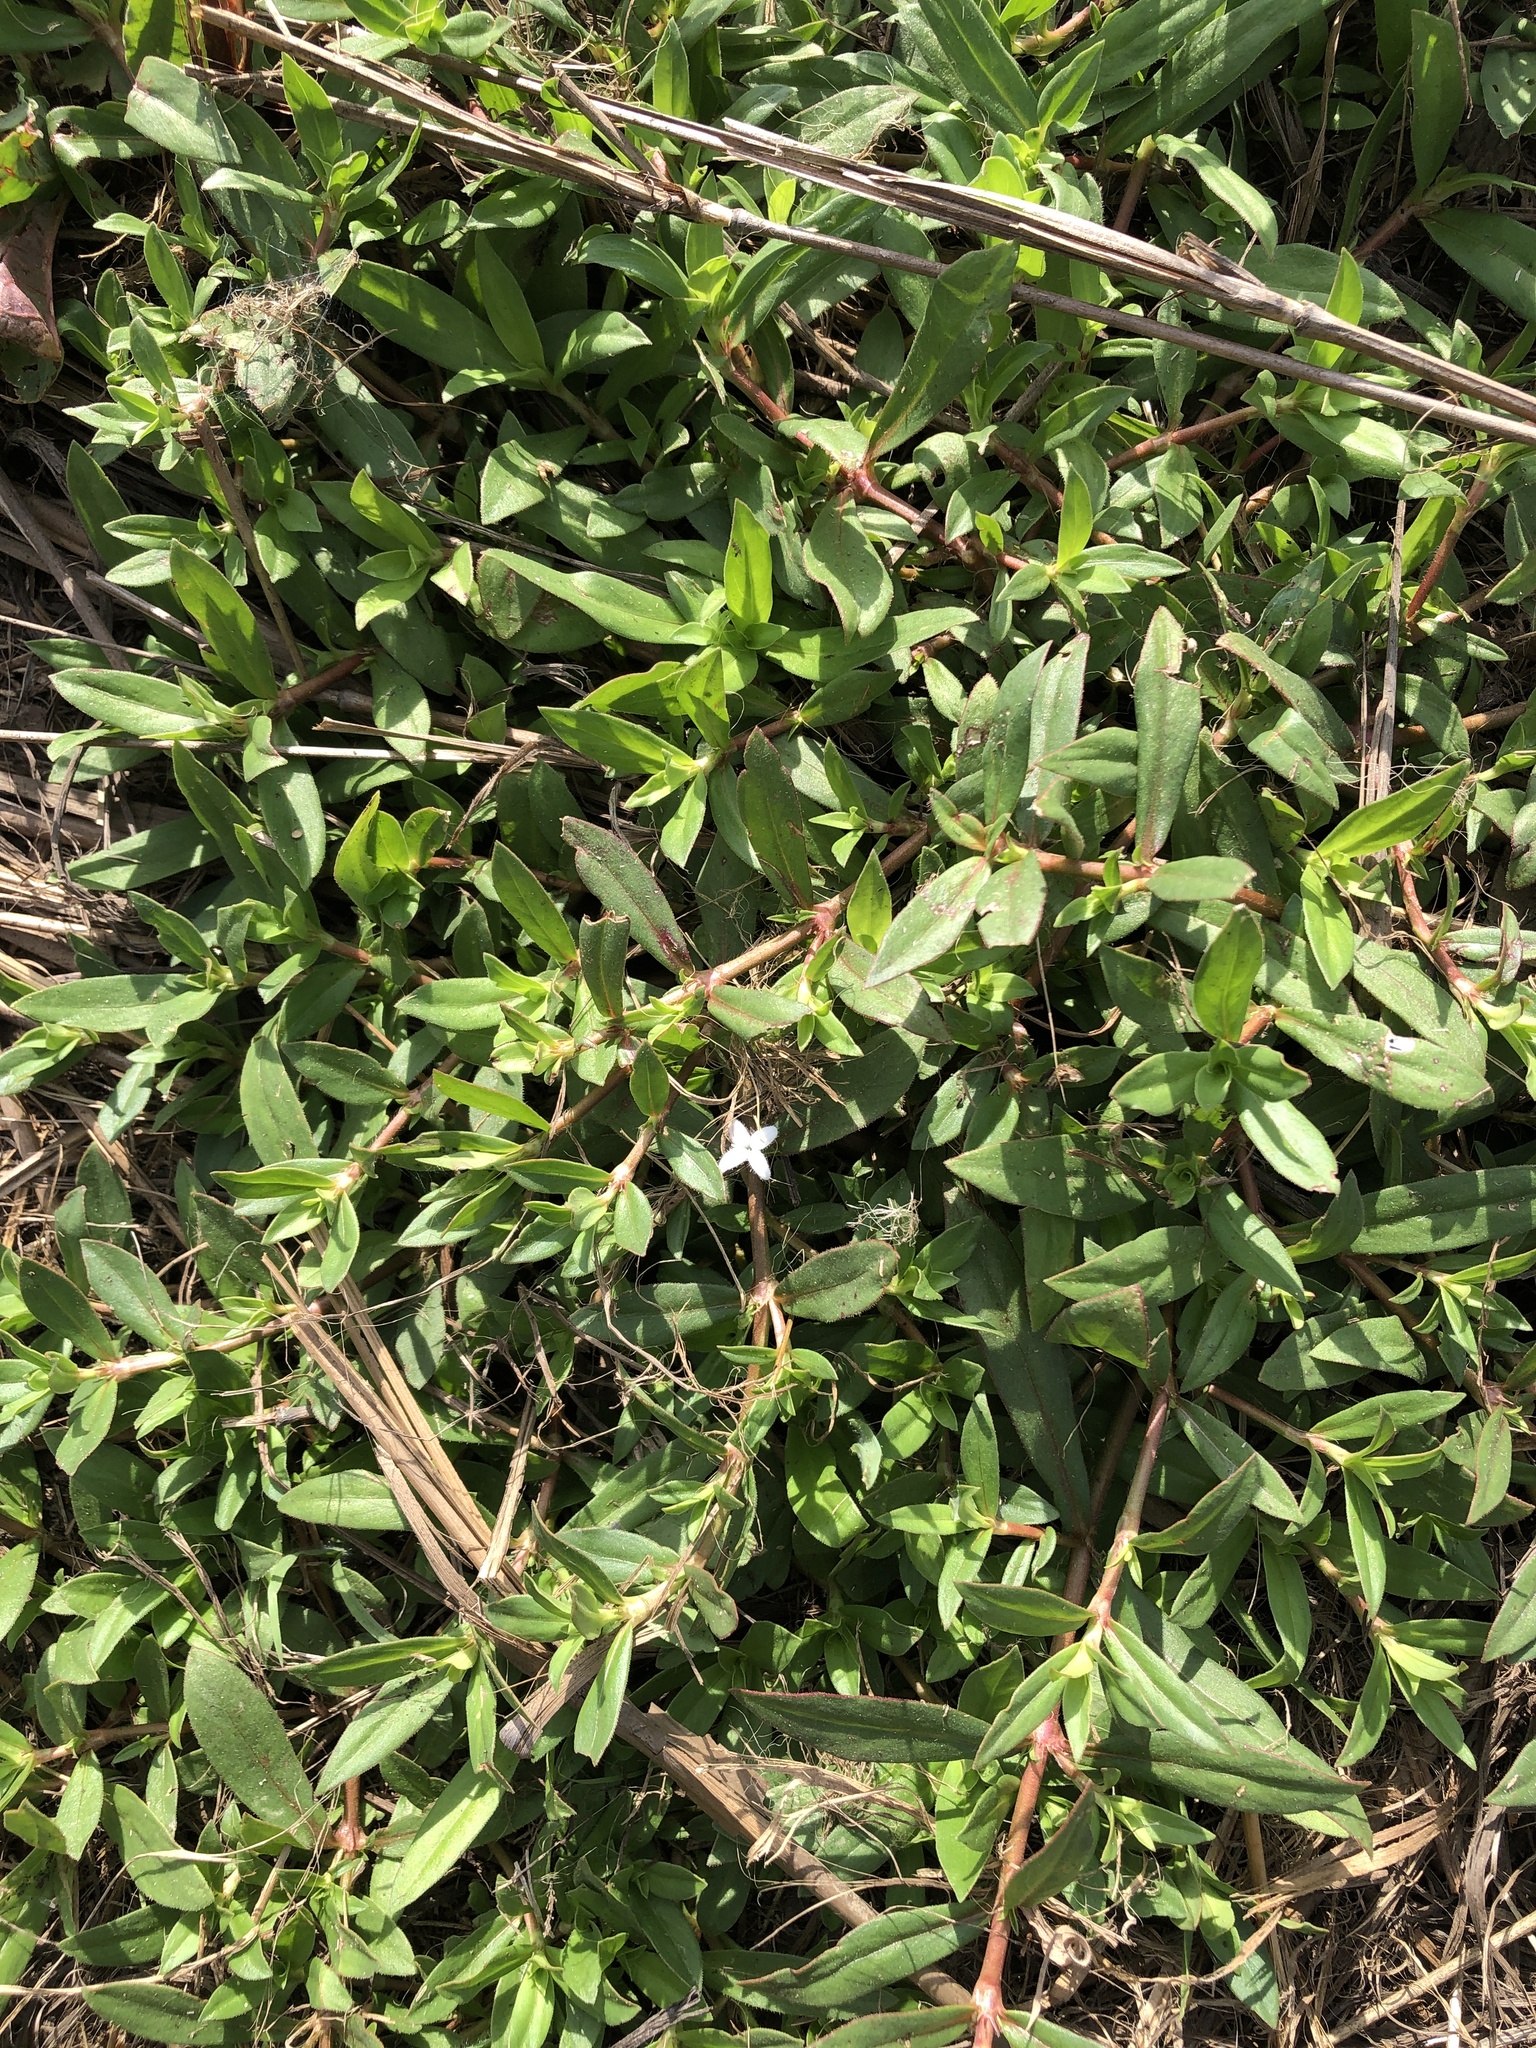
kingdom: Plantae
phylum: Tracheophyta
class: Magnoliopsida
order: Gentianales
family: Rubiaceae
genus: Diodia
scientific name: Diodia virginiana
